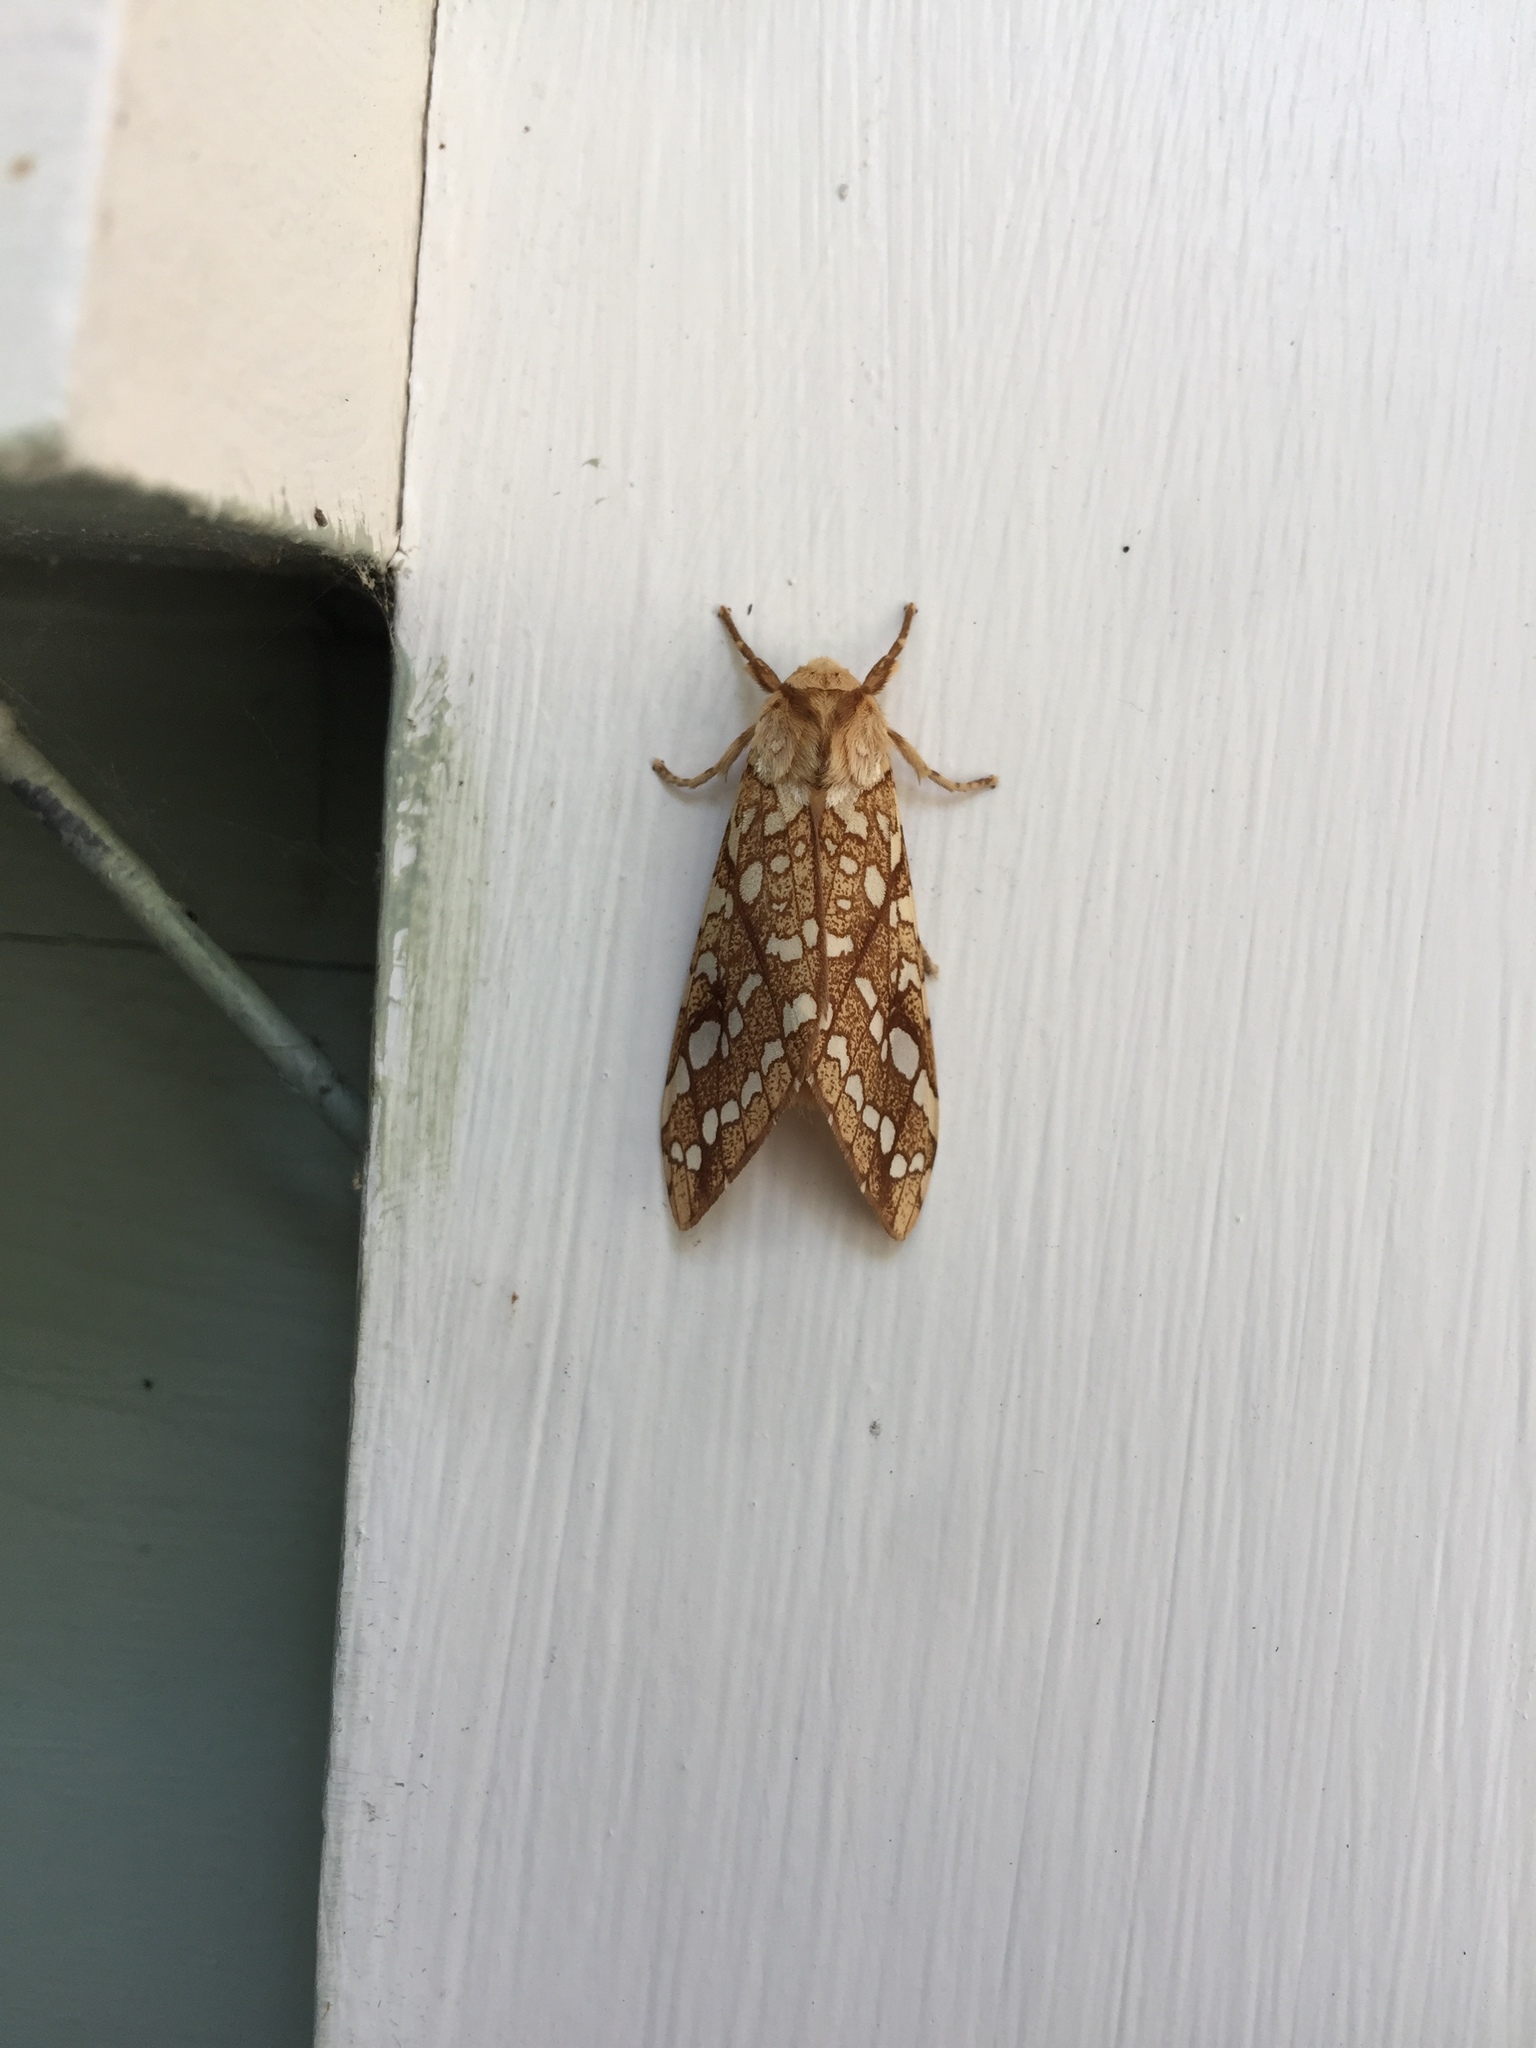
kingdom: Animalia
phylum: Arthropoda
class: Insecta
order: Lepidoptera
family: Erebidae
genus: Lophocampa
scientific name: Lophocampa caryae
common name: Hickory tussock moth
